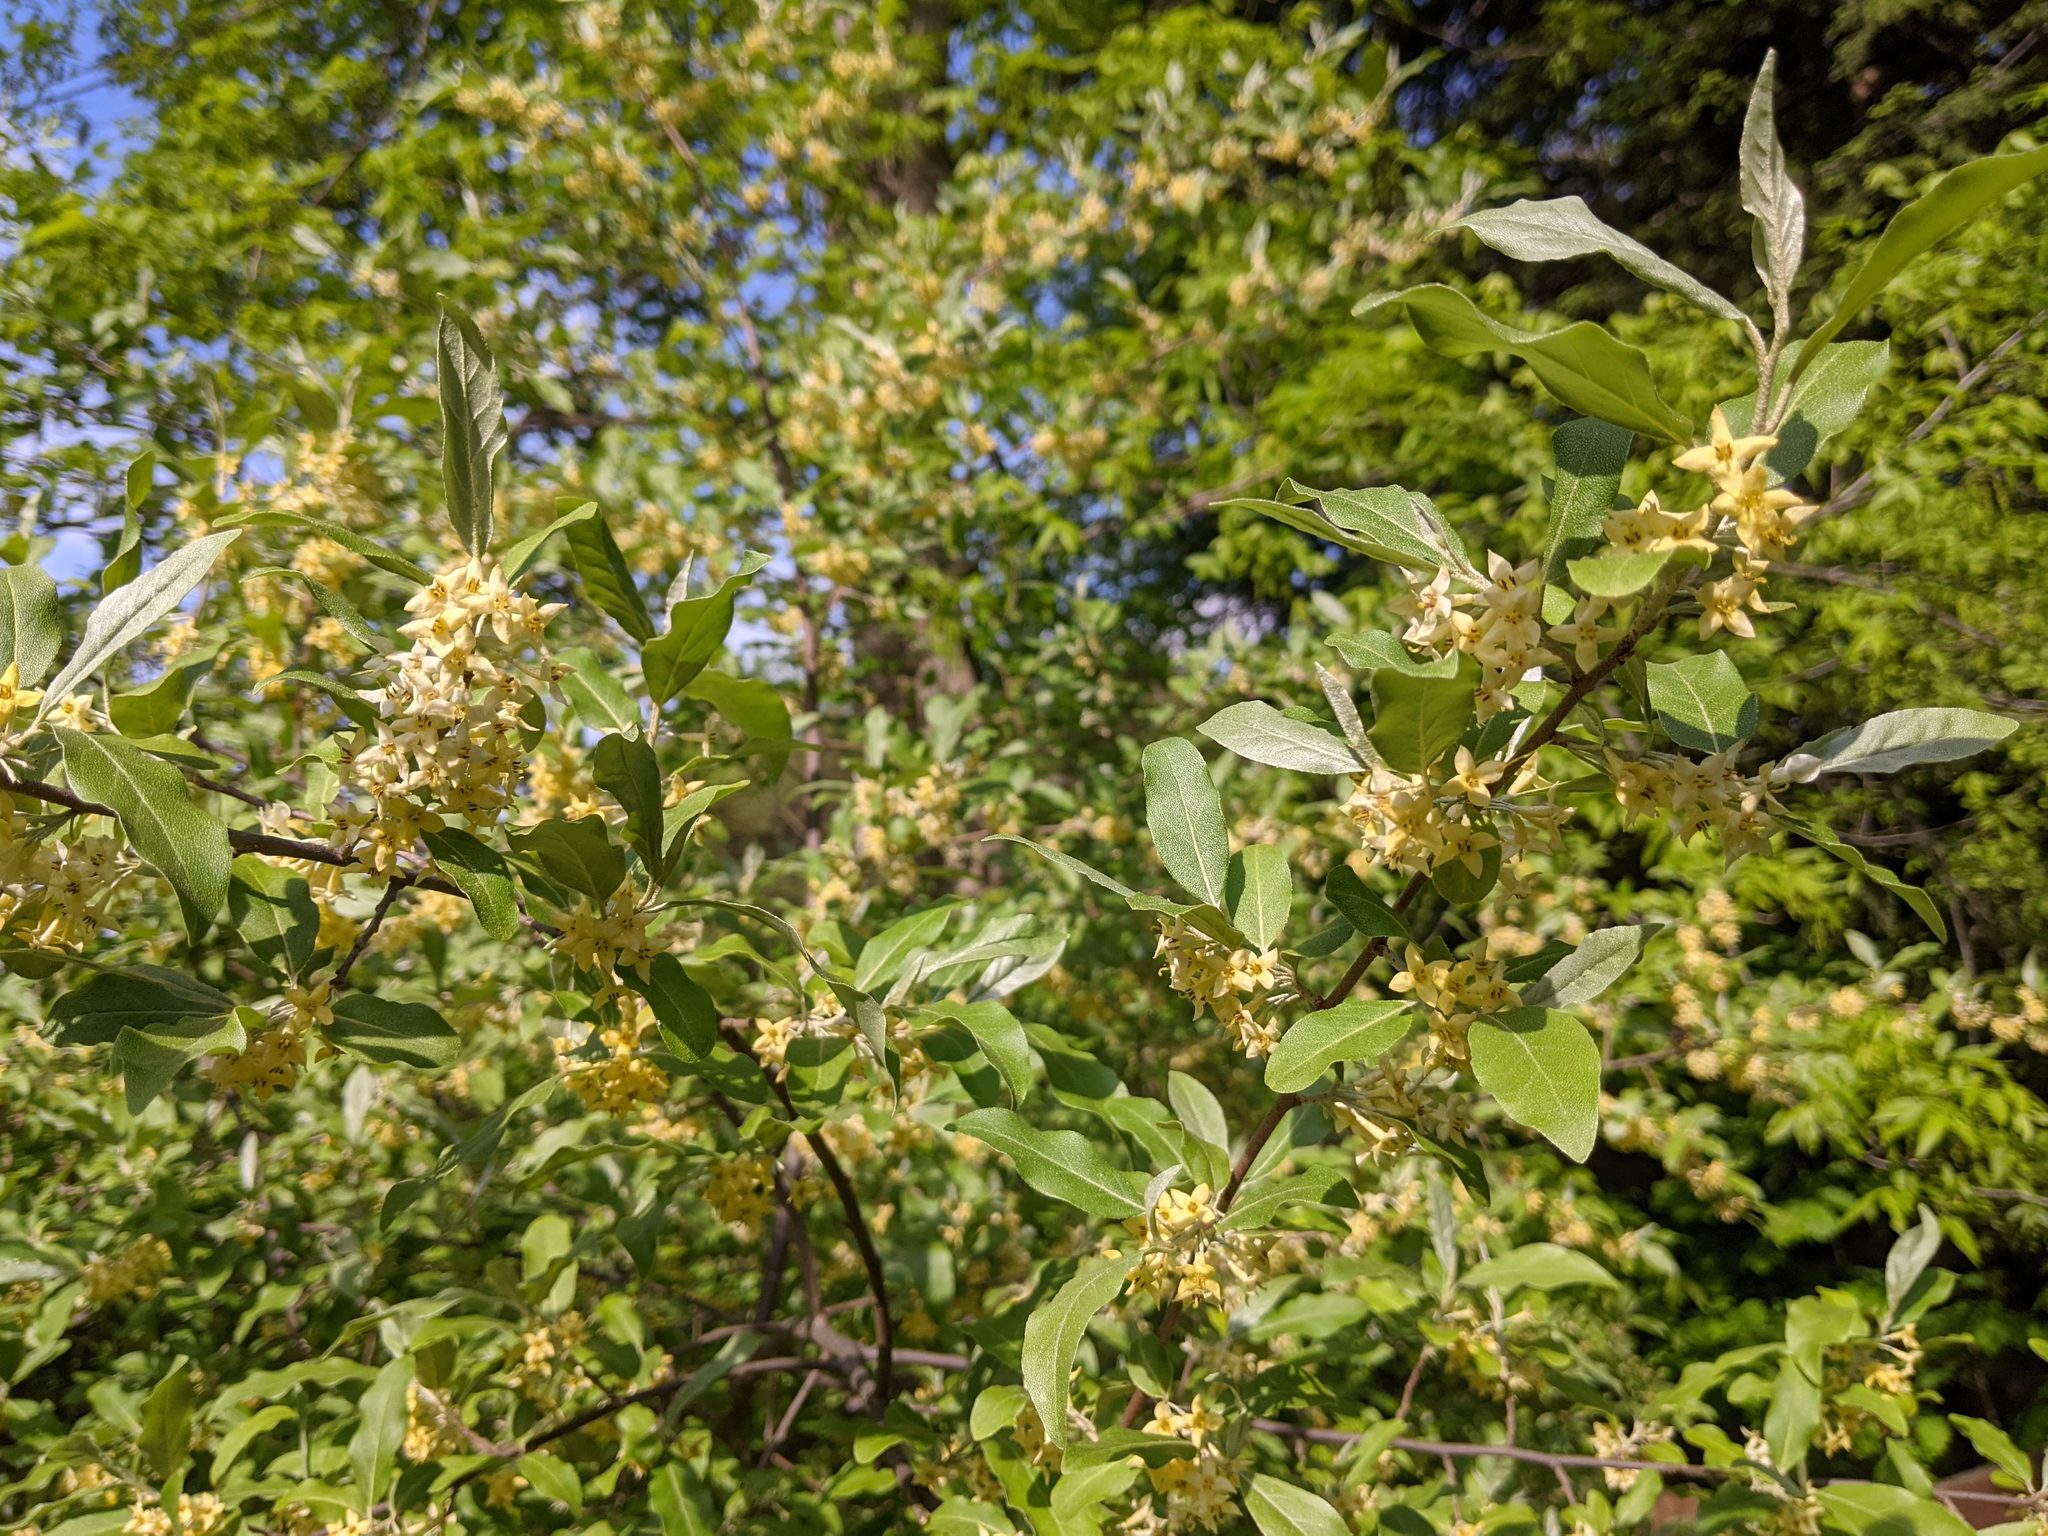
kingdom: Plantae
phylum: Tracheophyta
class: Magnoliopsida
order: Rosales
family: Elaeagnaceae
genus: Elaeagnus
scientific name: Elaeagnus umbellata
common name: Autumn olive
